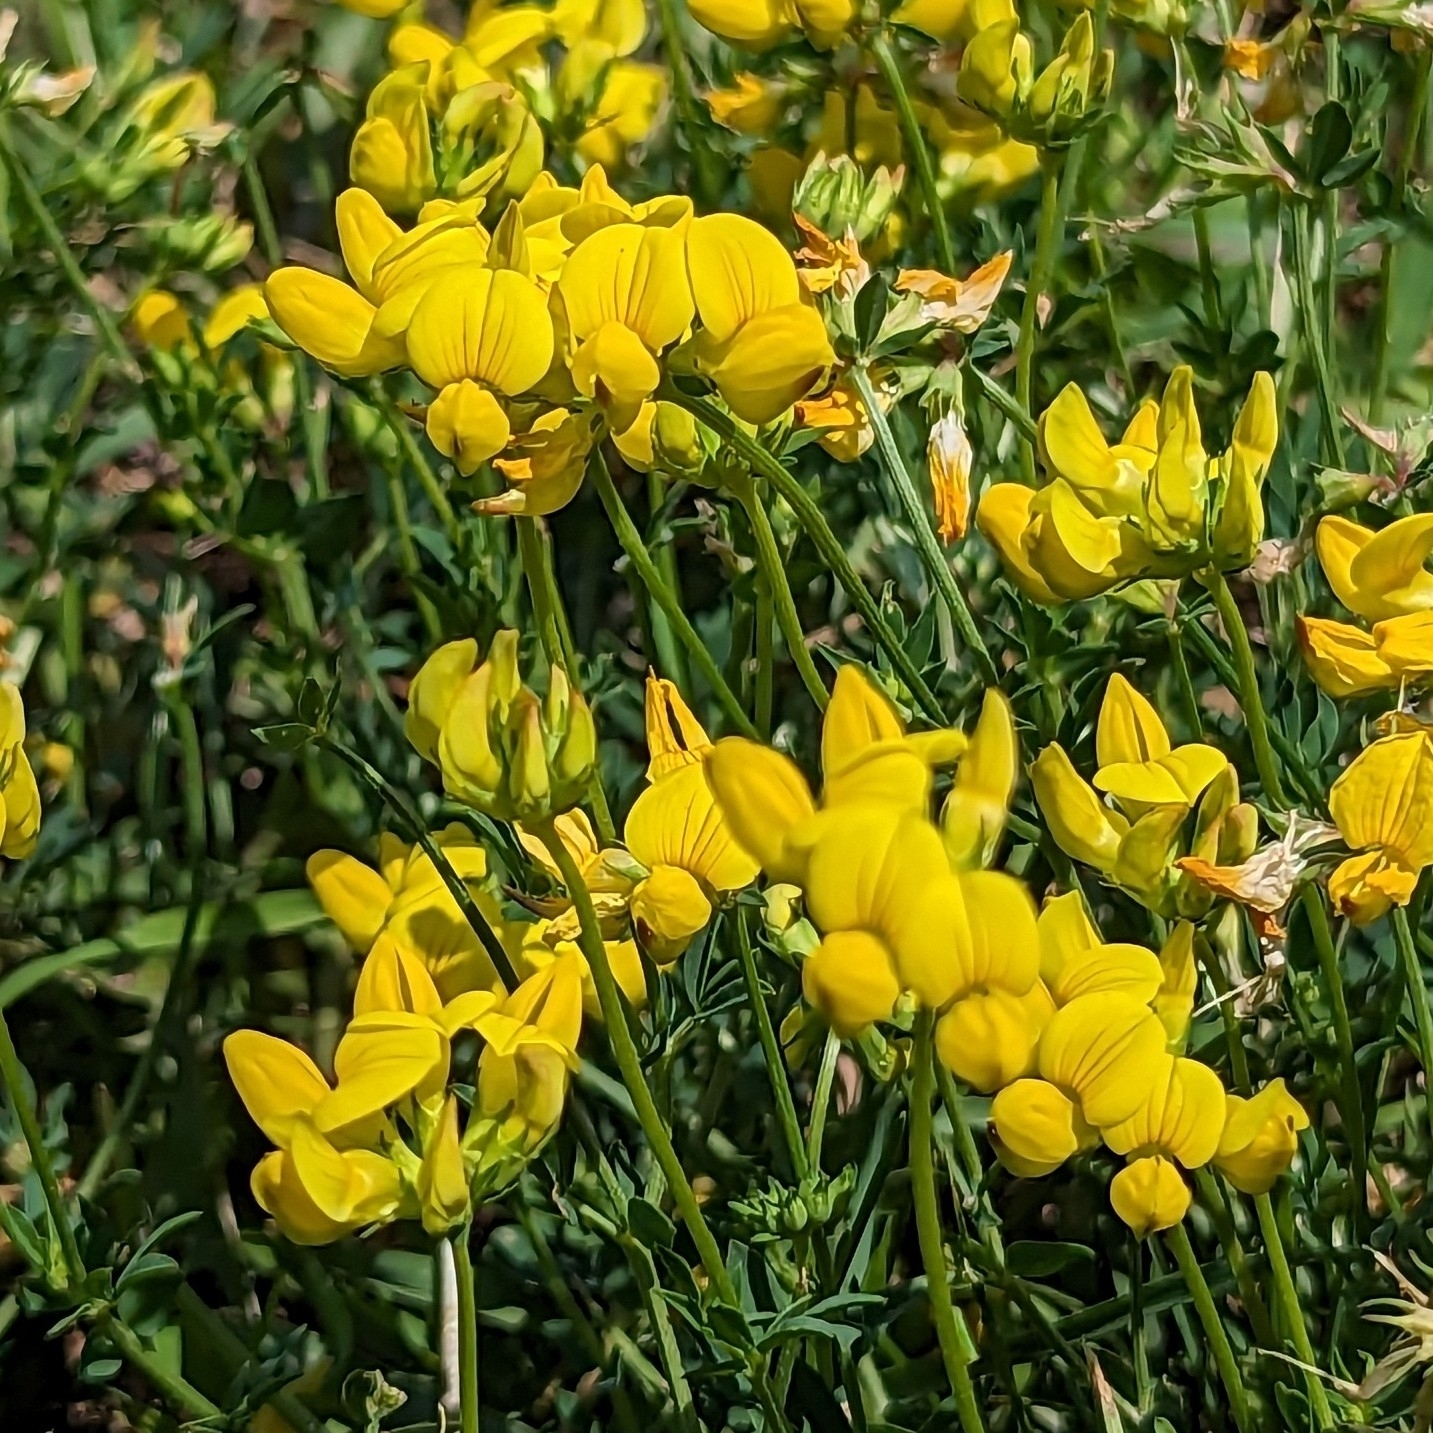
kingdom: Plantae
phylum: Tracheophyta
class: Magnoliopsida
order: Fabales
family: Fabaceae
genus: Lotus
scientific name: Lotus corniculatus
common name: Common bird's-foot-trefoil
